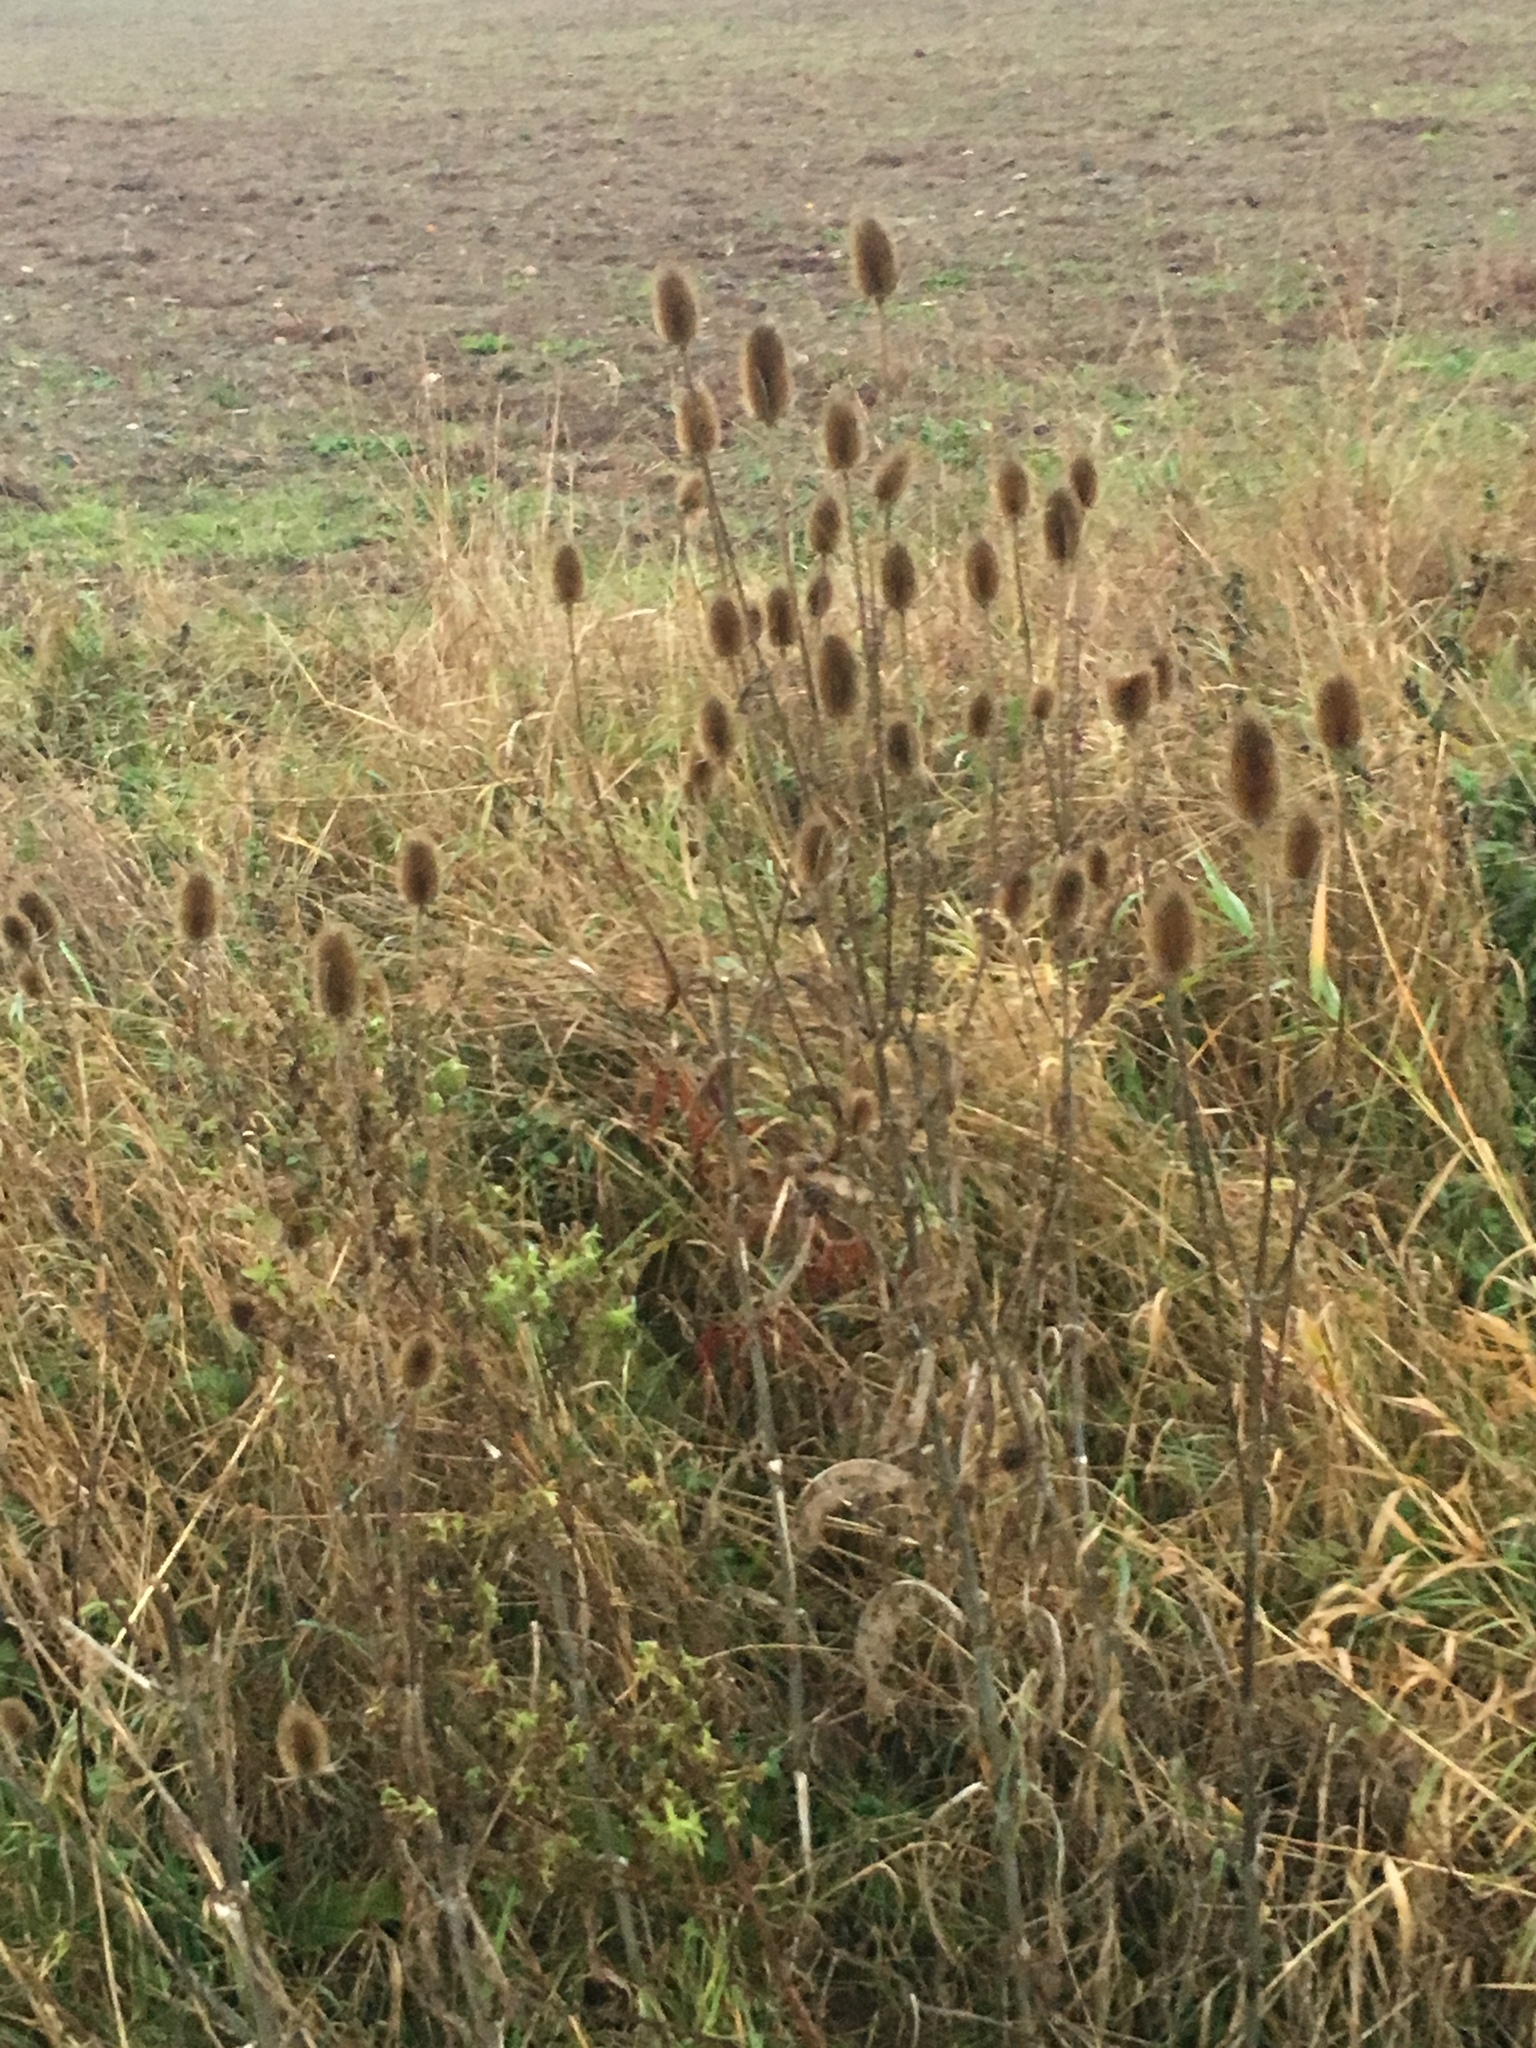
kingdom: Plantae
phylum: Tracheophyta
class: Magnoliopsida
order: Dipsacales
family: Caprifoliaceae
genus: Dipsacus
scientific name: Dipsacus fullonum
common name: Teasel
